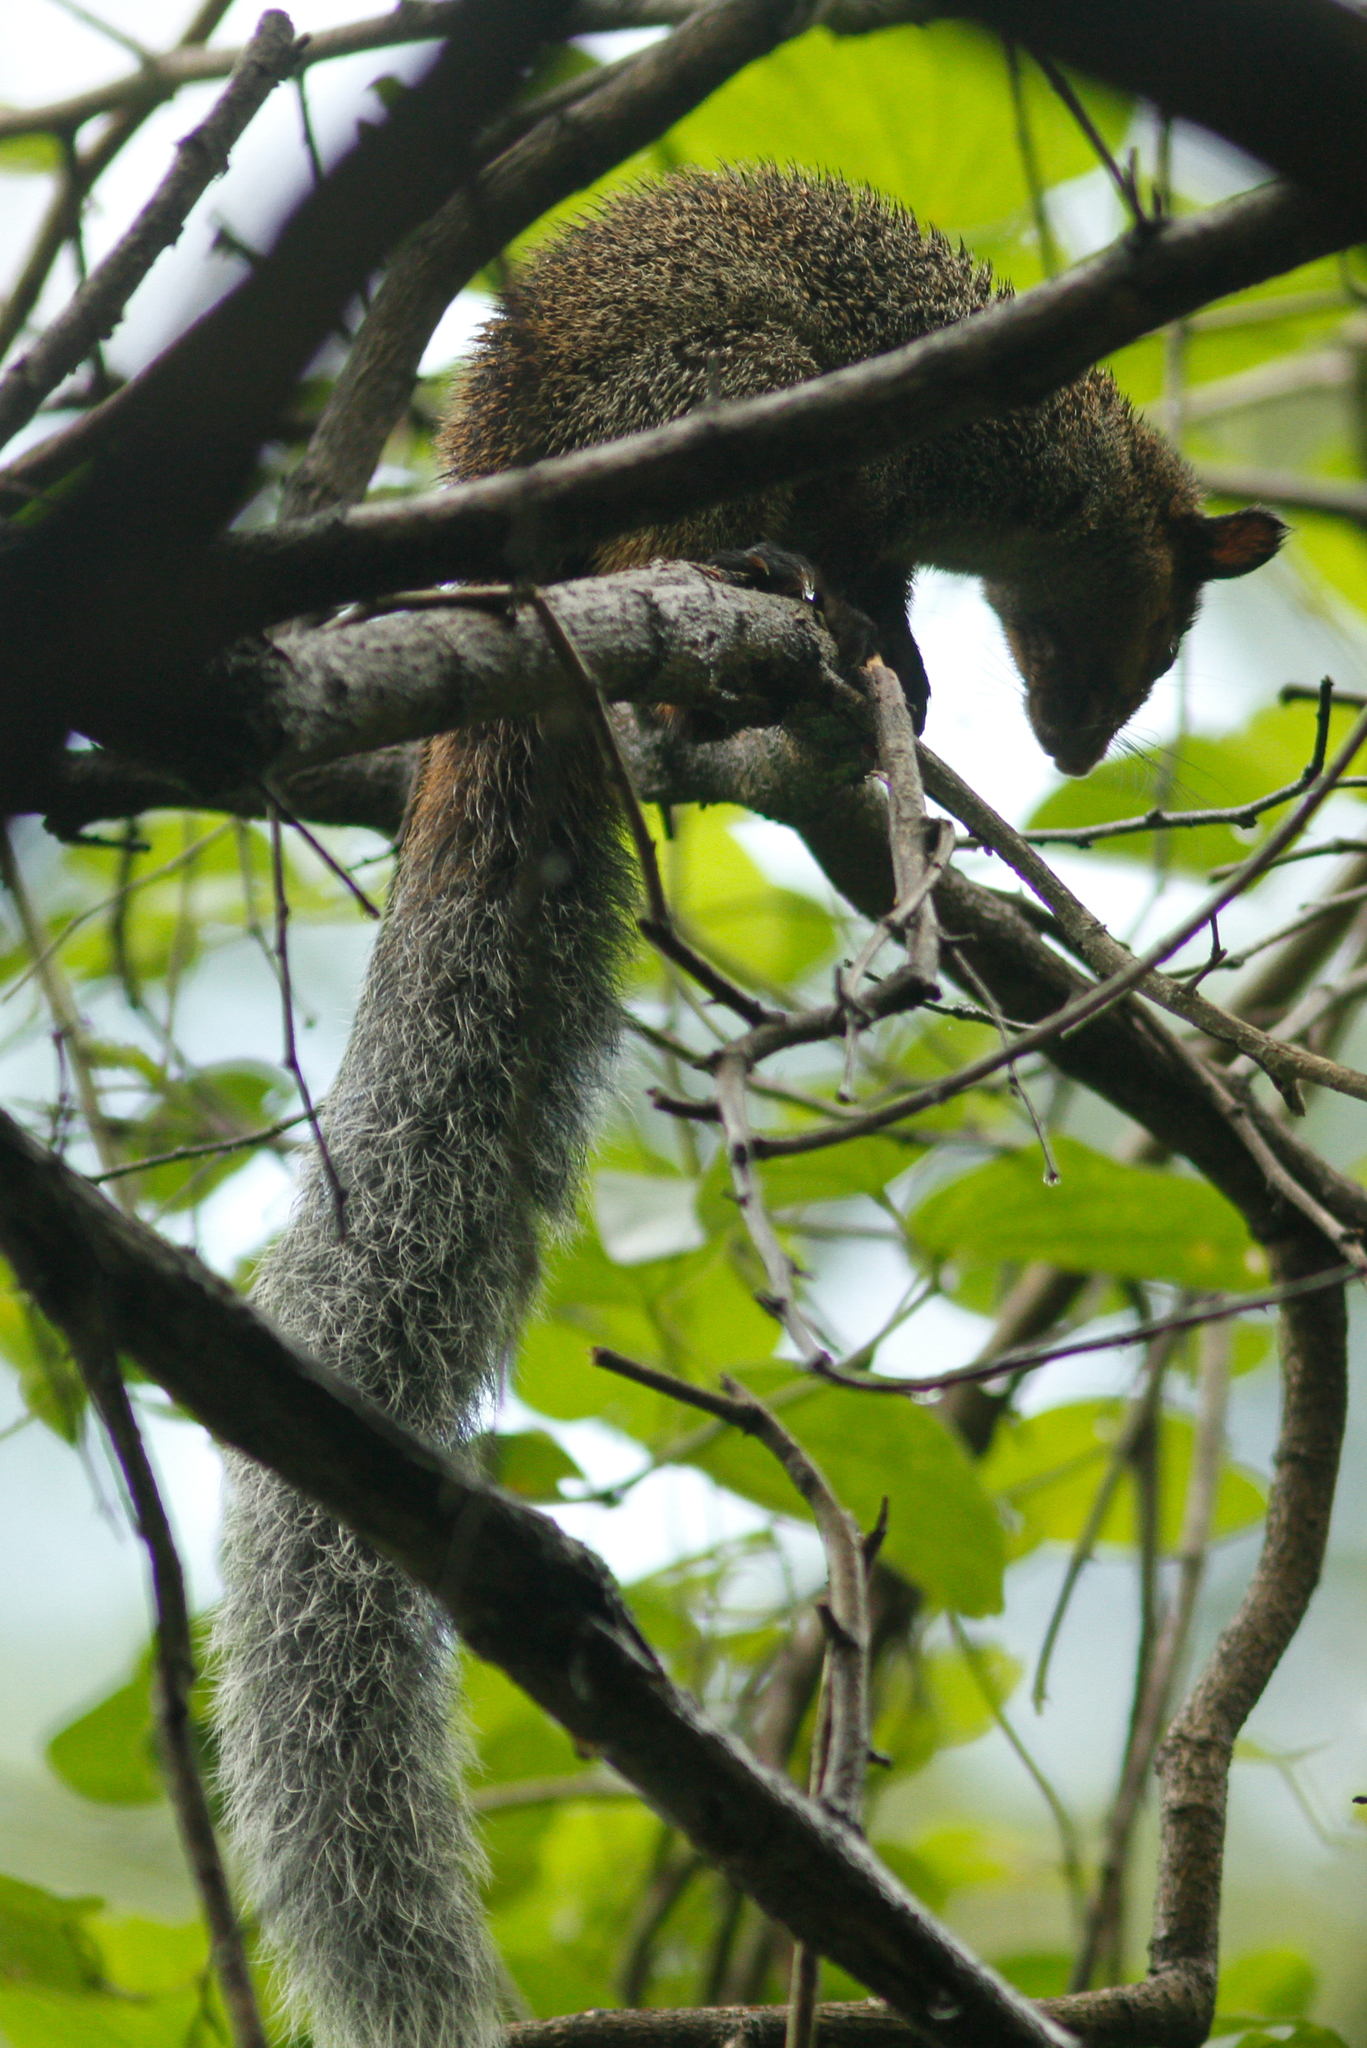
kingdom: Animalia
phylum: Chordata
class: Mammalia
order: Rodentia
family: Sciuridae
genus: Sciurus
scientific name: Sciurus stramineus
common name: Guayaquil squirrel
